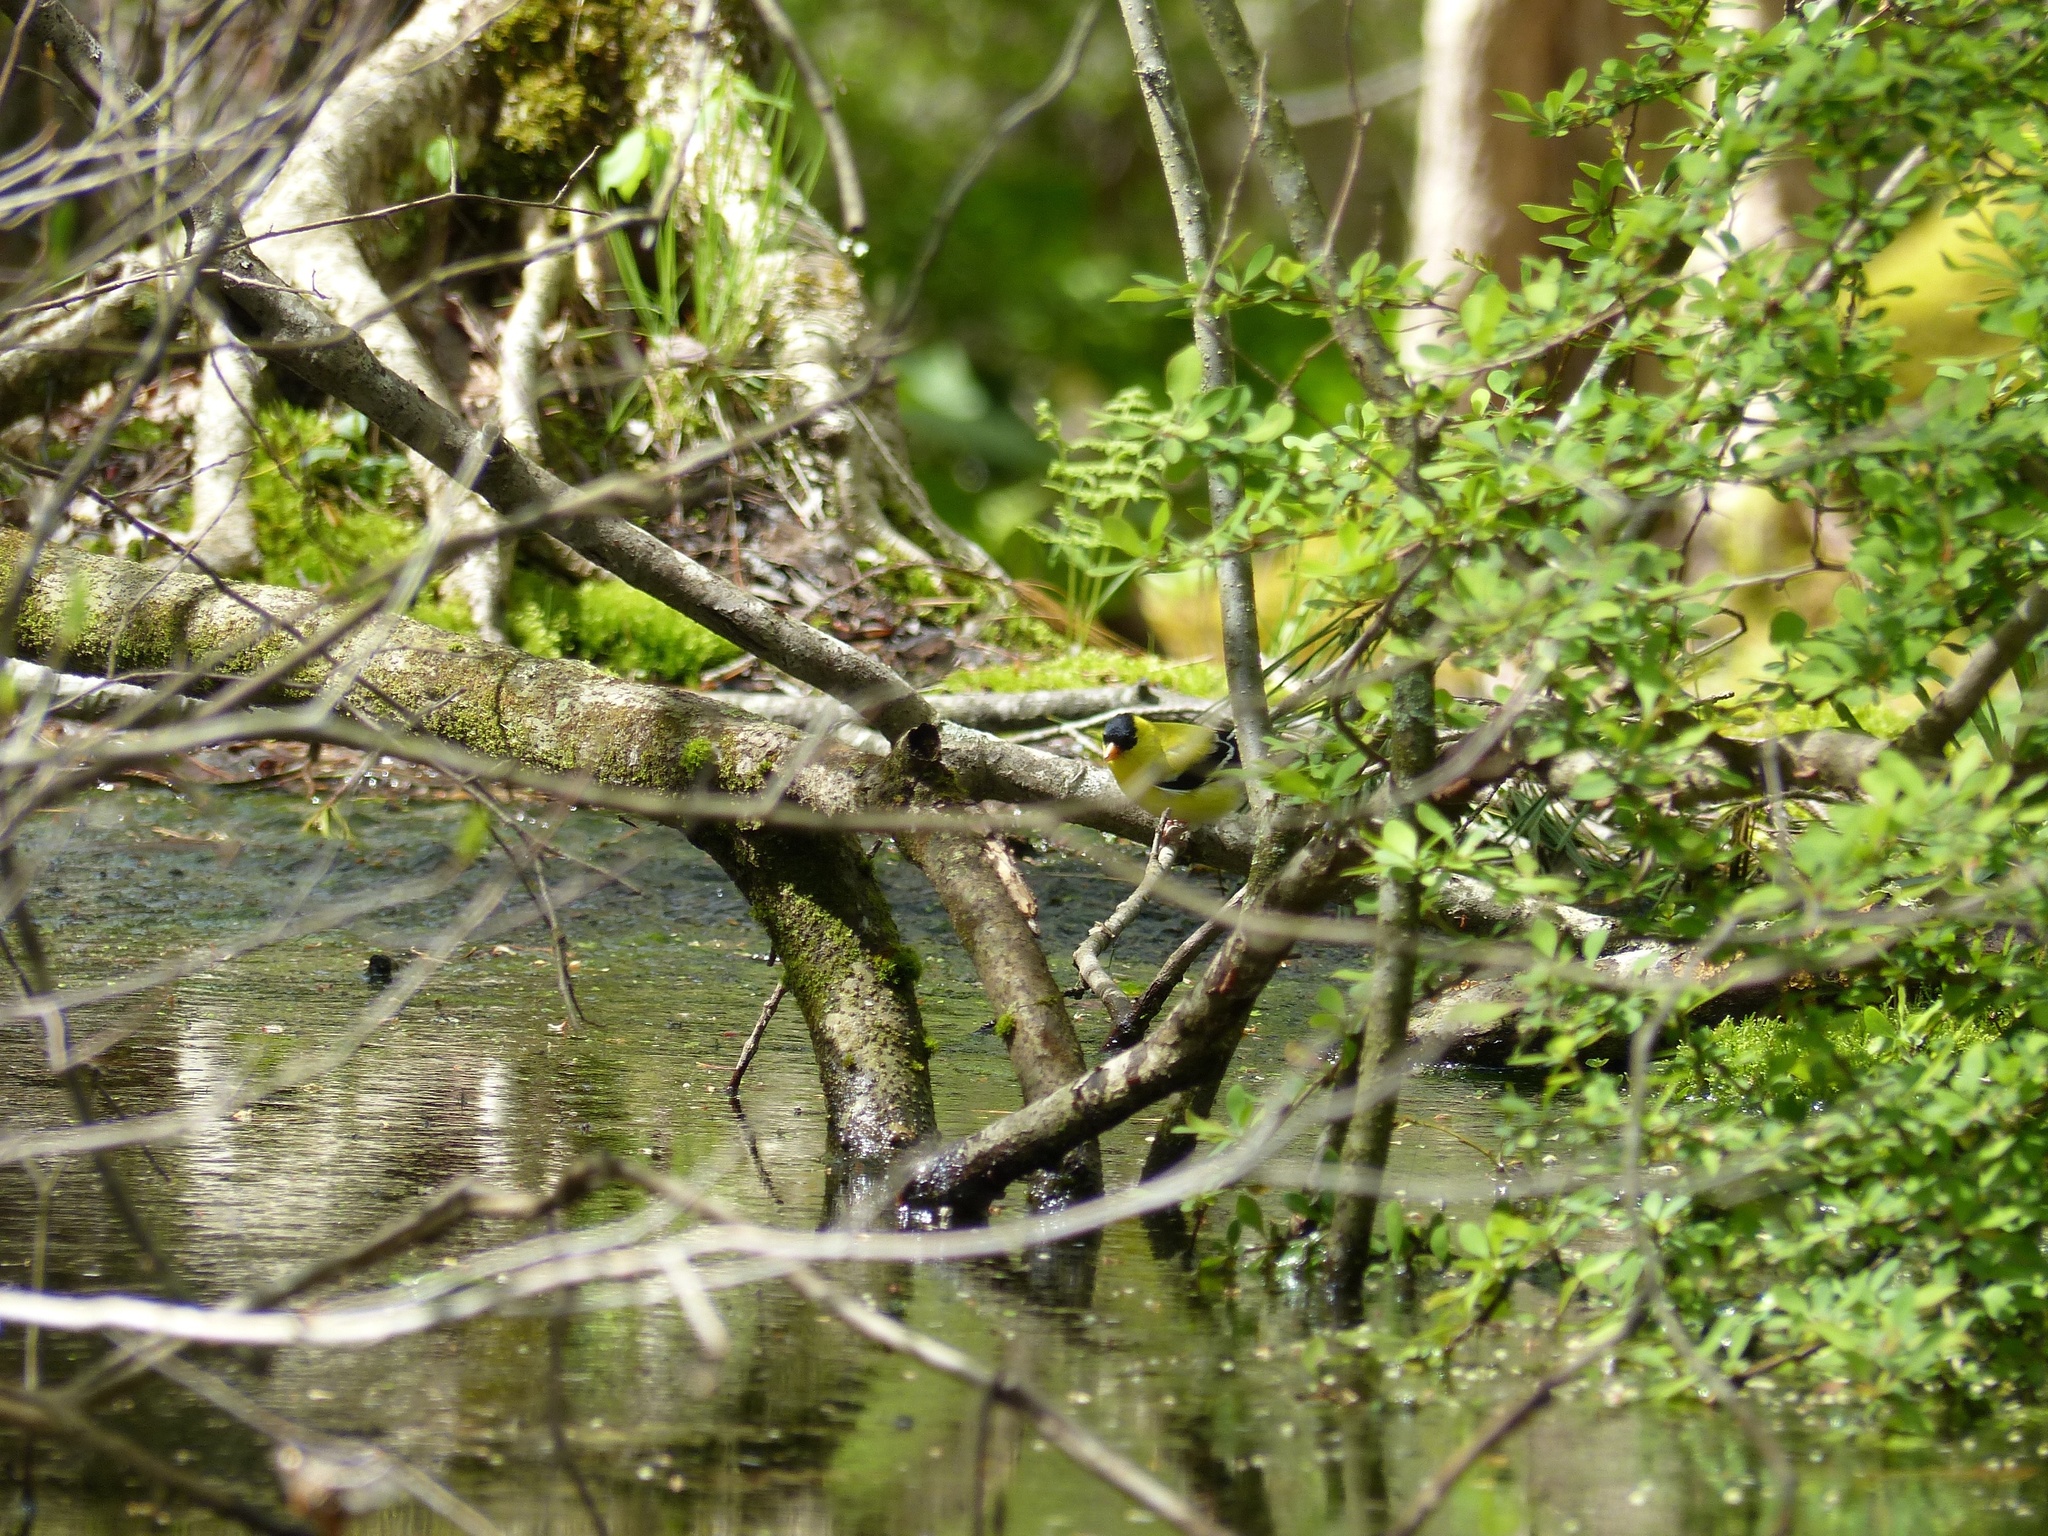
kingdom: Animalia
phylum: Chordata
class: Aves
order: Passeriformes
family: Fringillidae
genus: Spinus
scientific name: Spinus tristis
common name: American goldfinch
